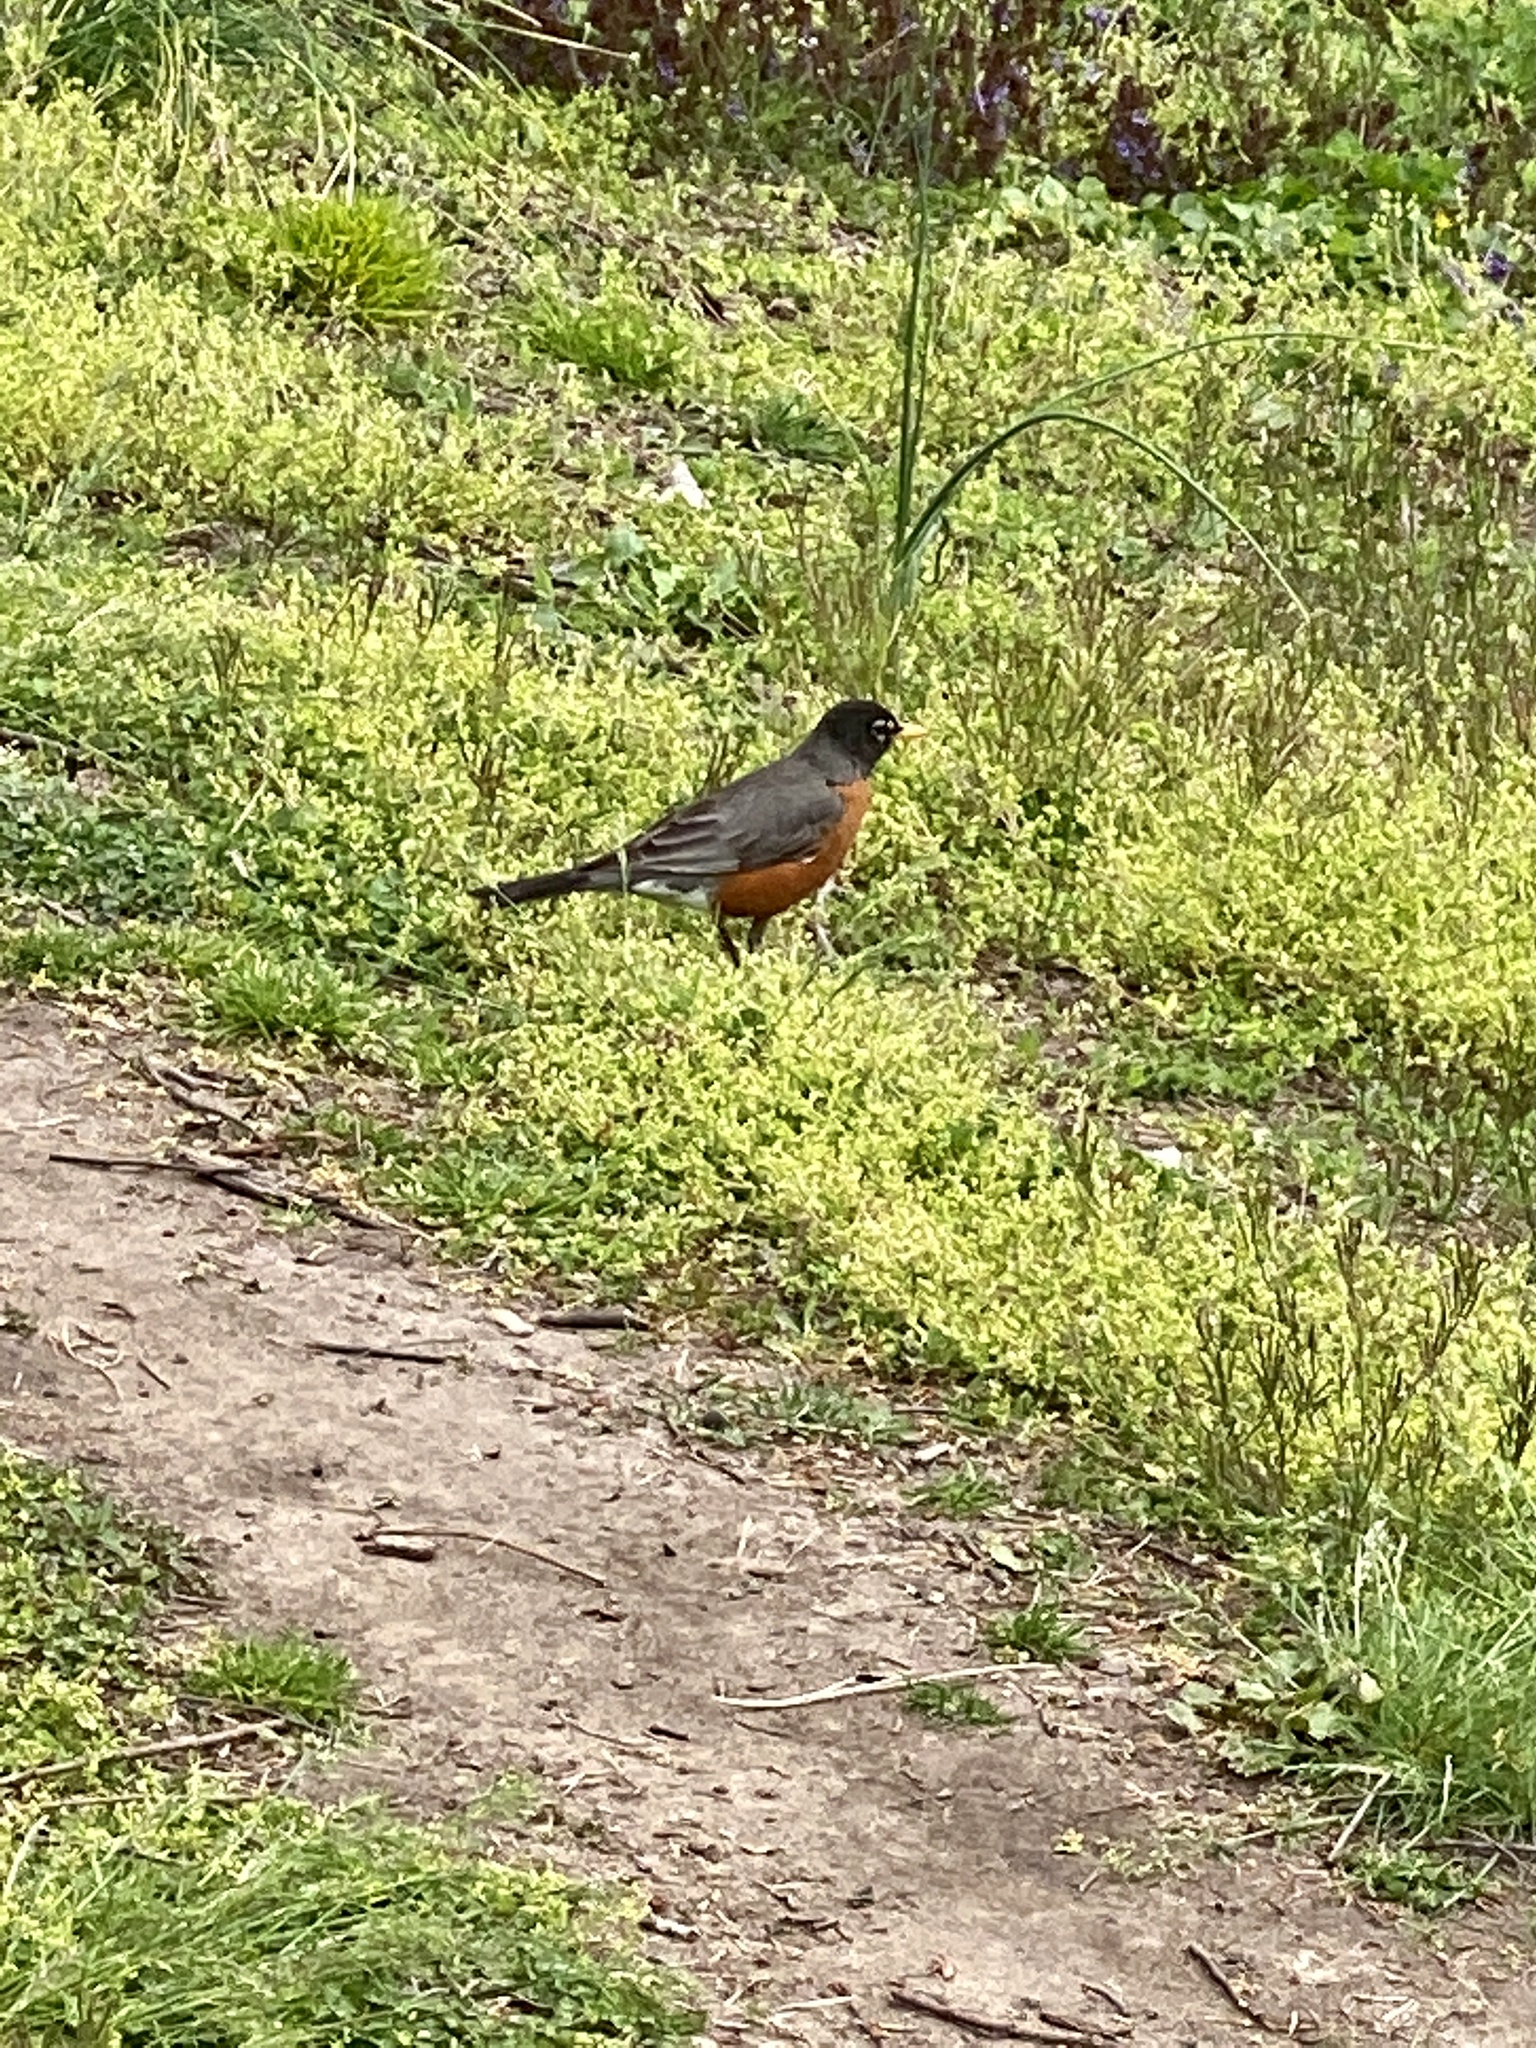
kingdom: Animalia
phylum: Chordata
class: Aves
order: Passeriformes
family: Turdidae
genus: Turdus
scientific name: Turdus migratorius
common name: American robin
